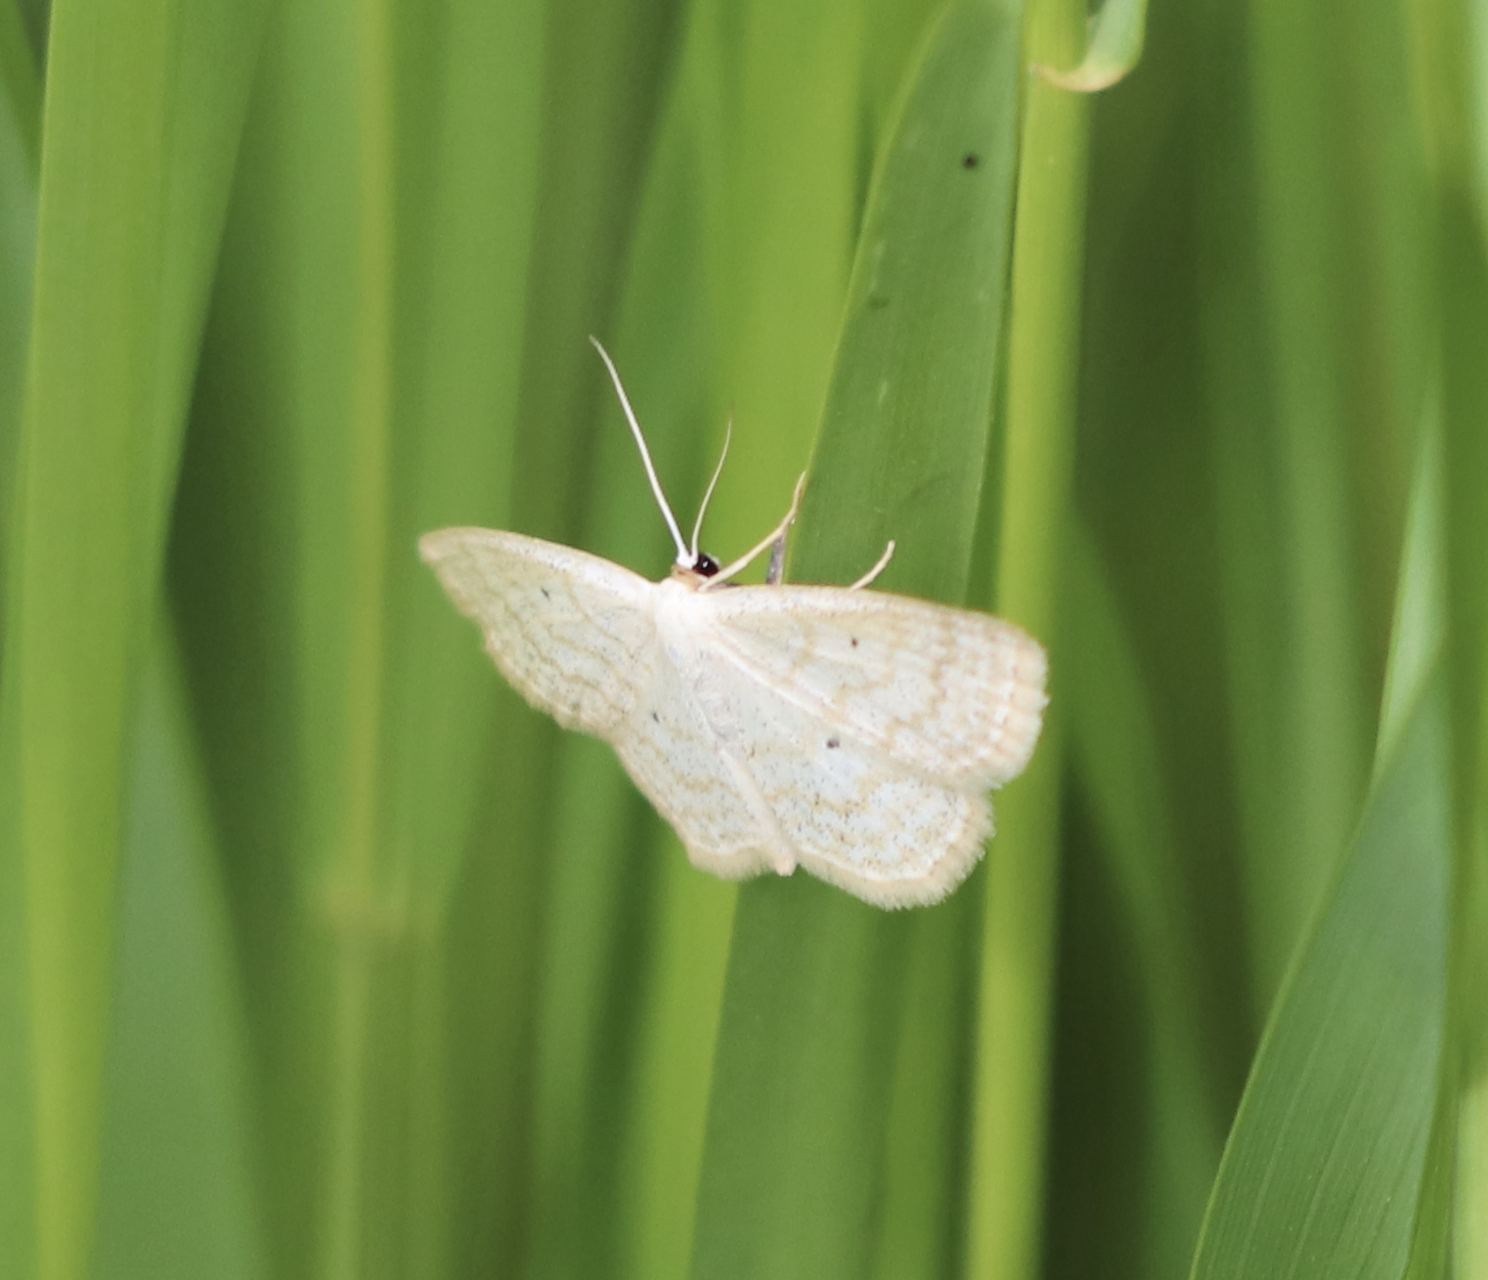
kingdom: Animalia
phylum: Arthropoda
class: Insecta
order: Lepidoptera
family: Geometridae
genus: Scopula
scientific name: Scopula immutata
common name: Lesser cream wave
